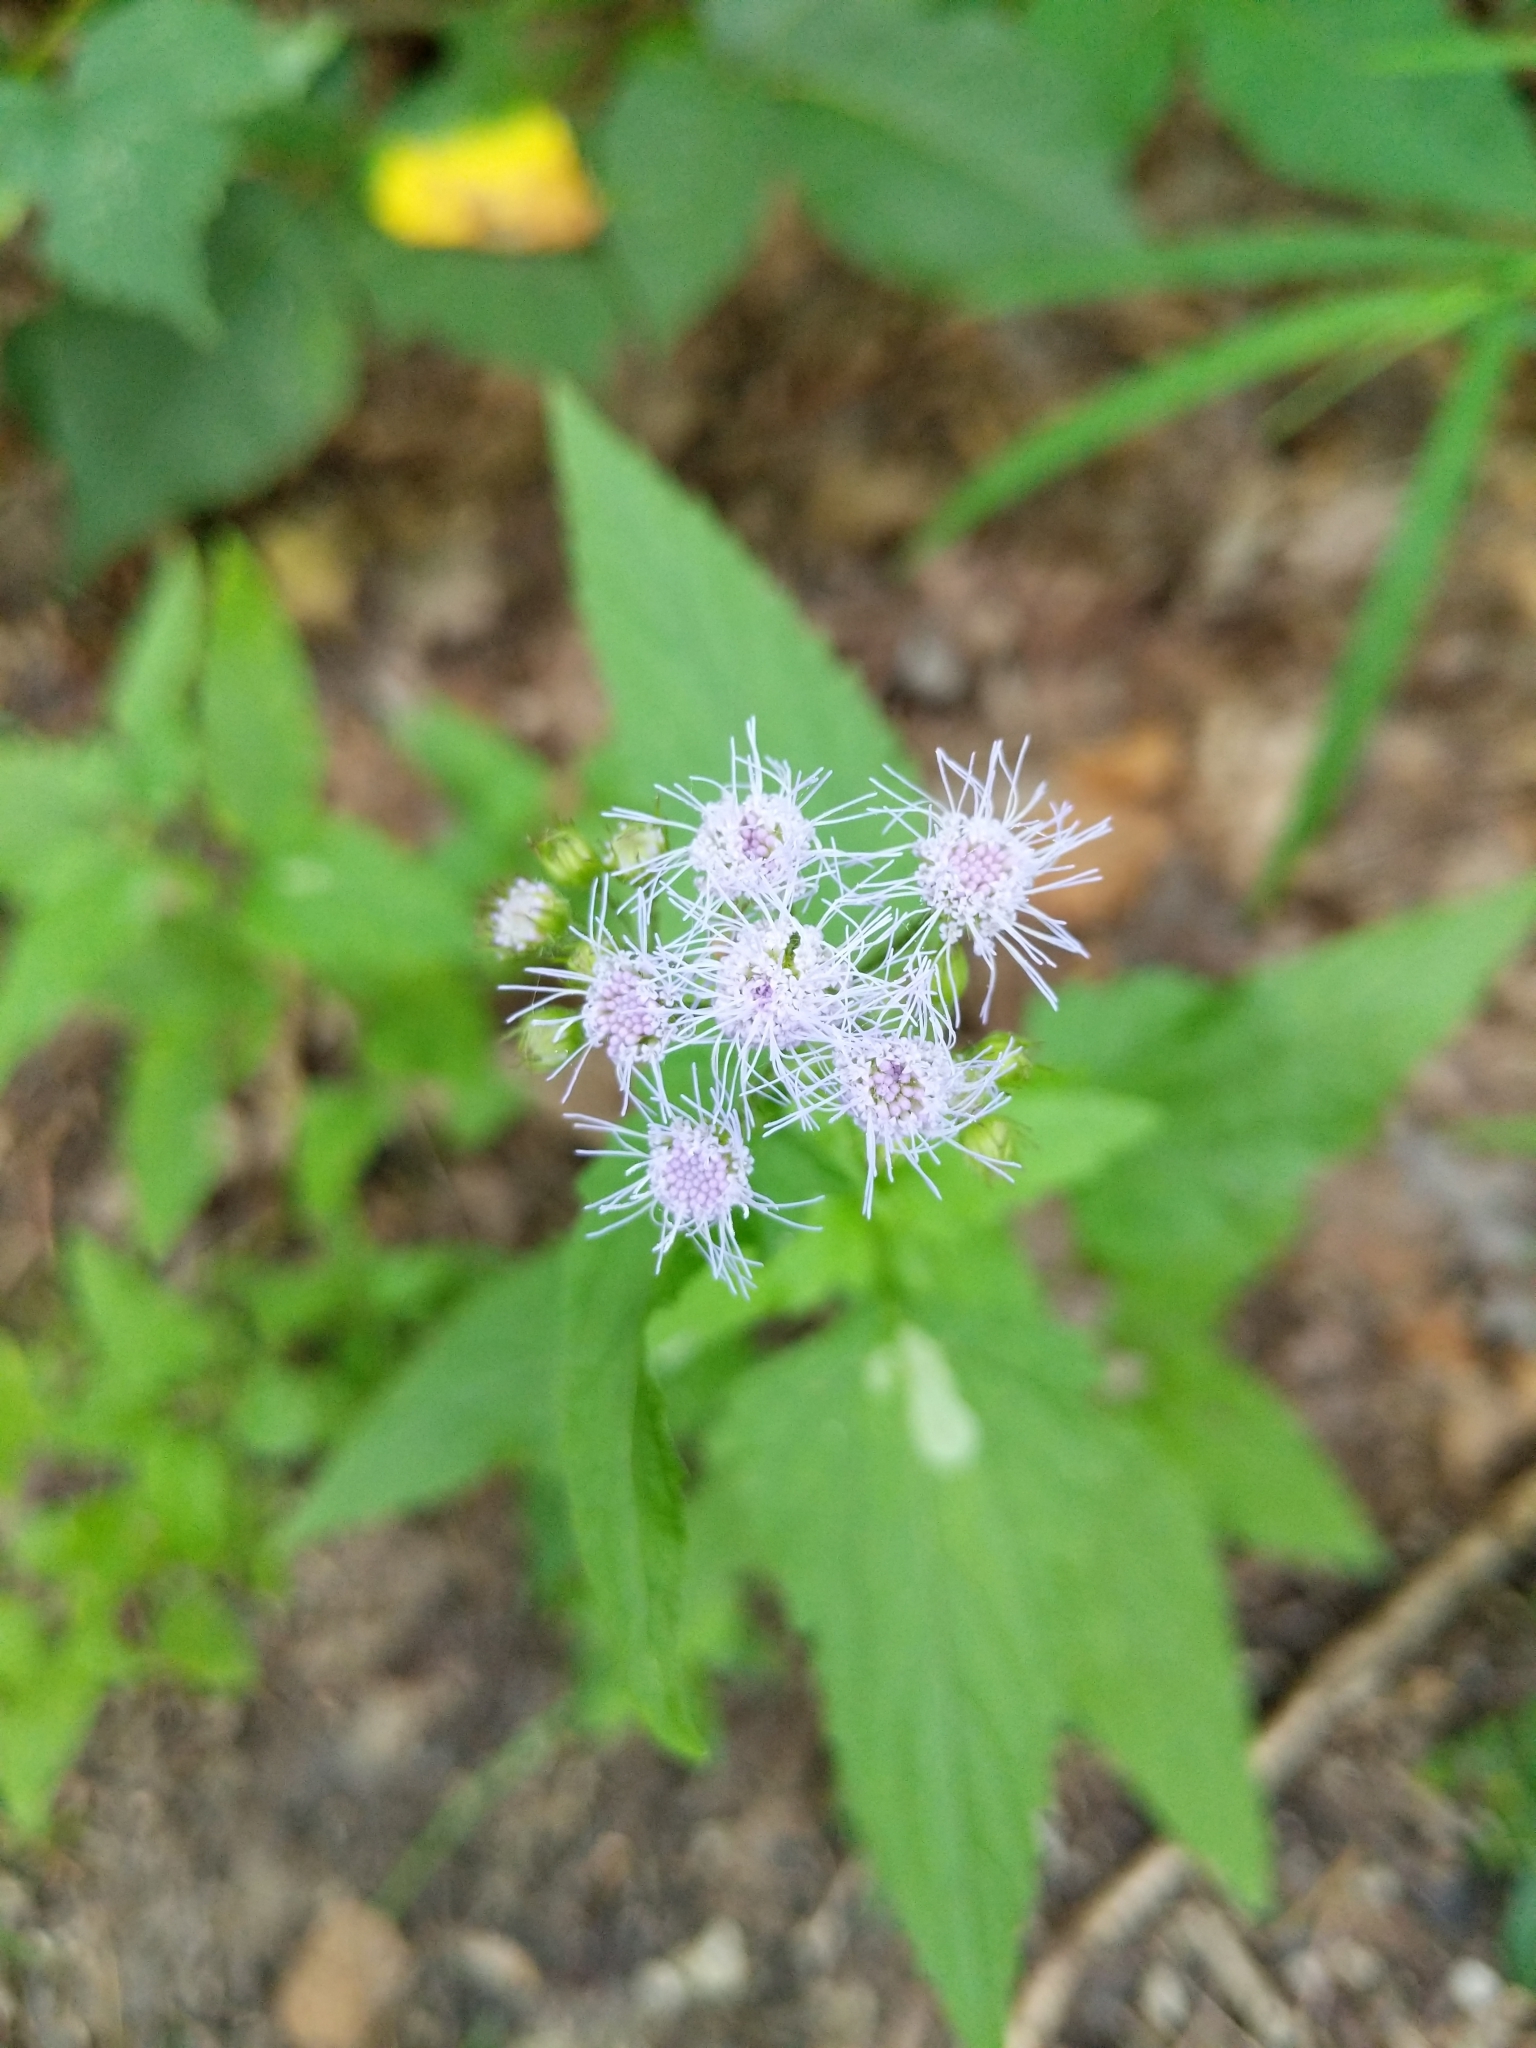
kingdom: Plantae
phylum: Tracheophyta
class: Magnoliopsida
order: Asterales
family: Asteraceae
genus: Conoclinium
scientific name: Conoclinium coelestinum
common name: Blue mistflower
